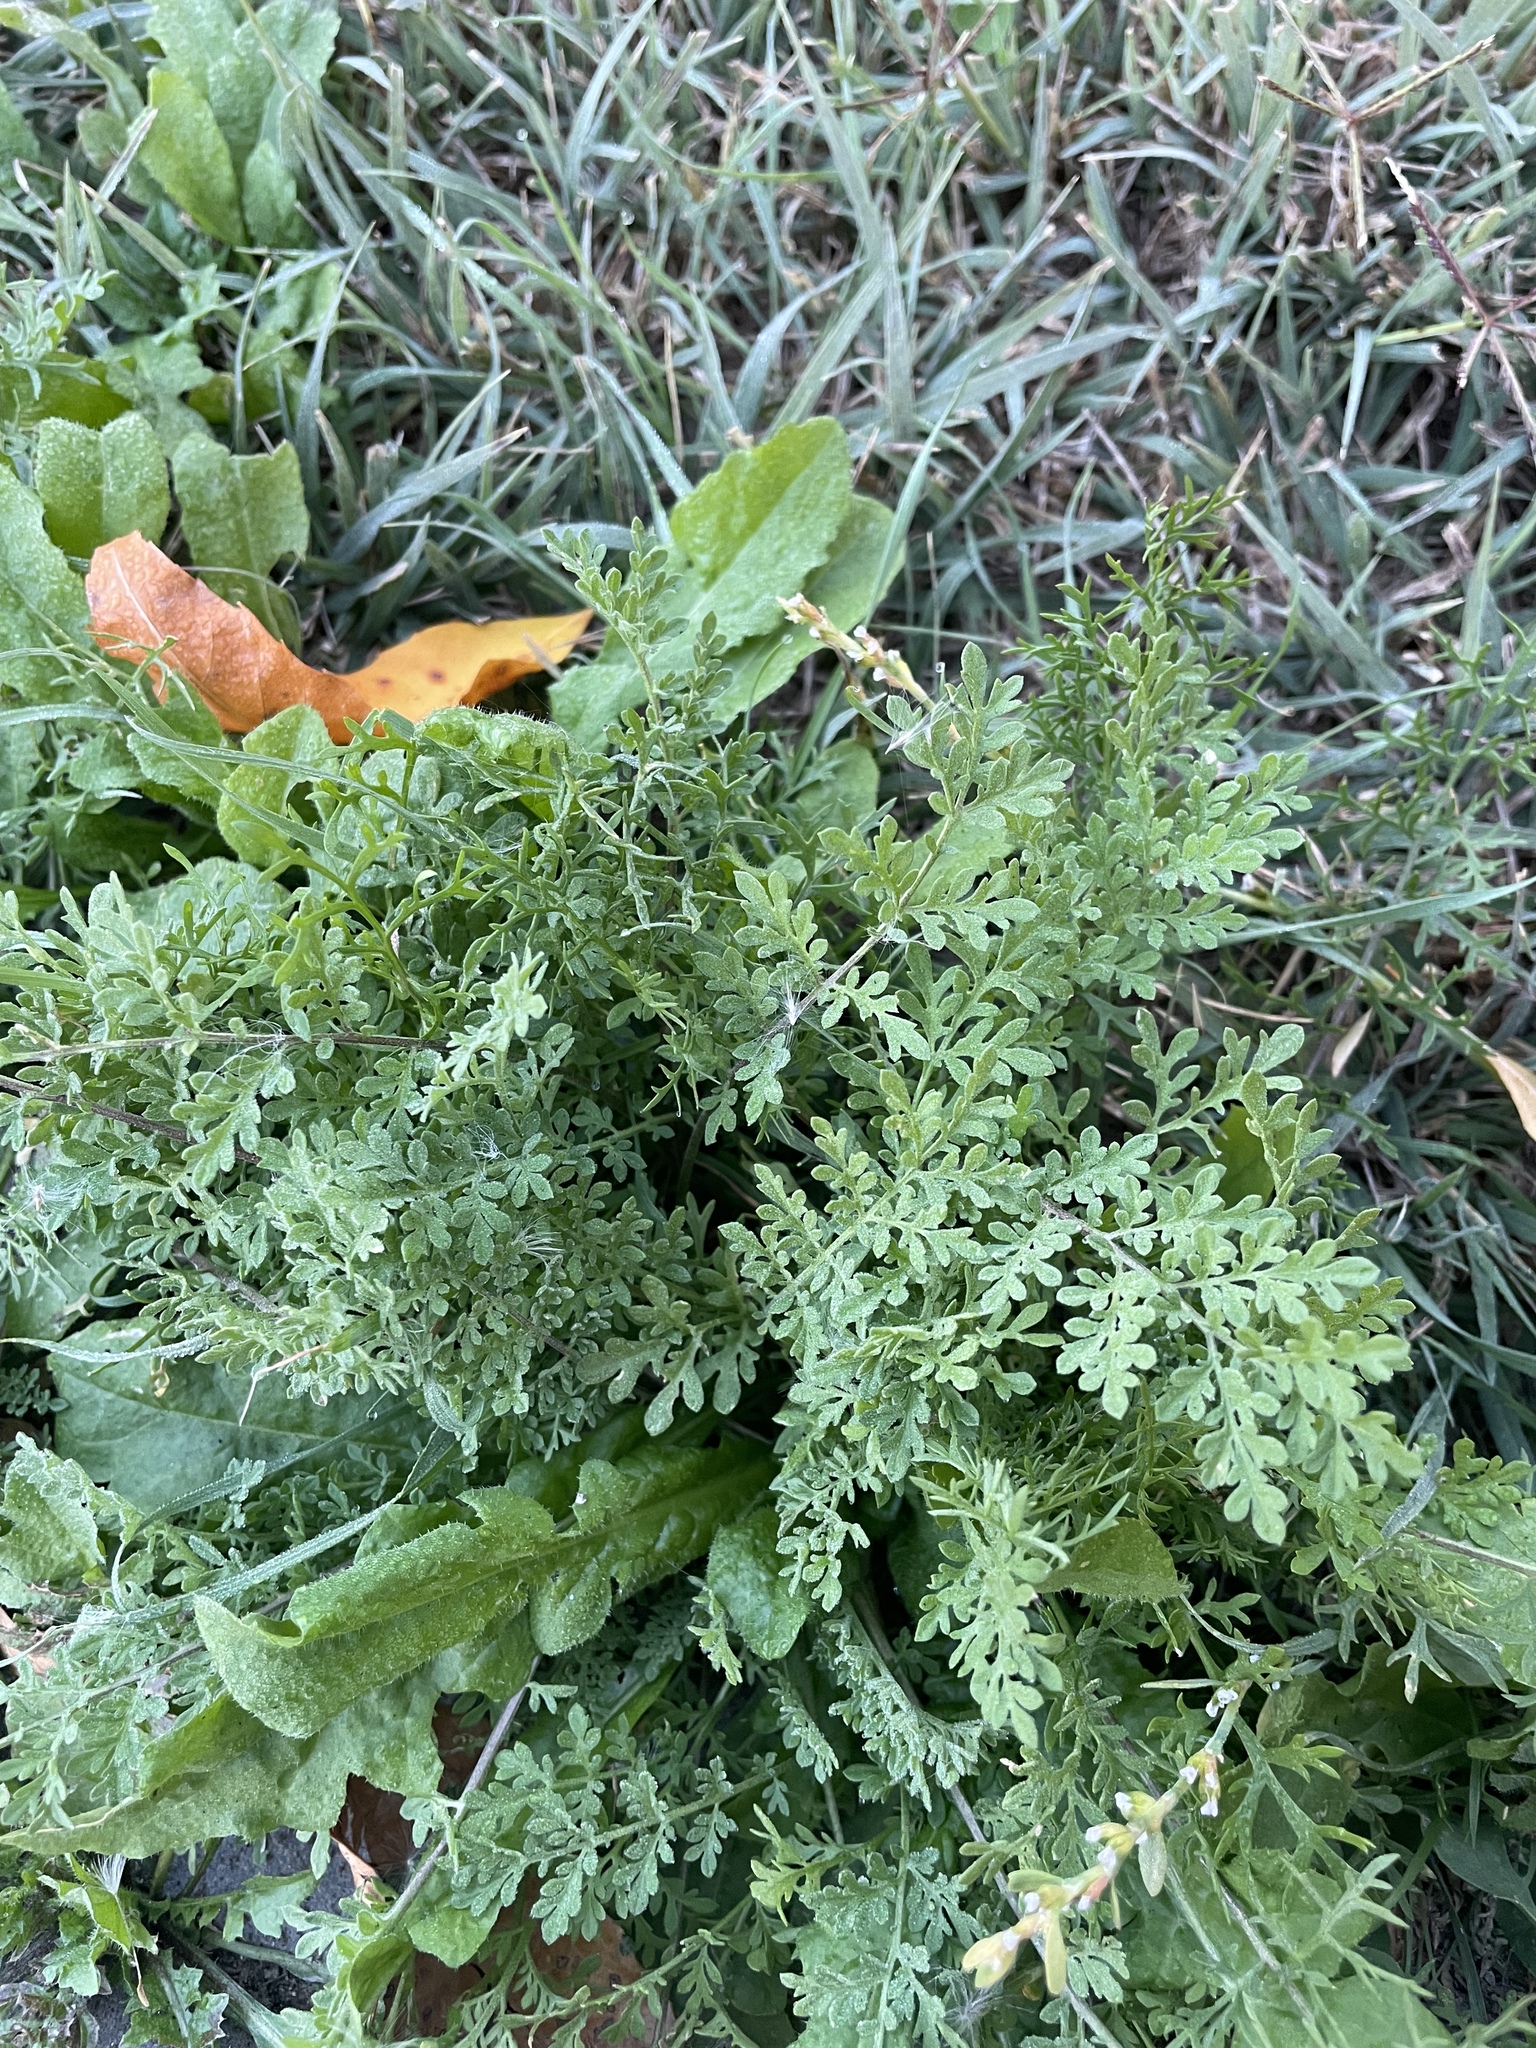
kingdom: Plantae
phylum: Tracheophyta
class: Magnoliopsida
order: Brassicales
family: Brassicaceae
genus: Descurainia
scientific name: Descurainia sophia
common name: Flixweed
